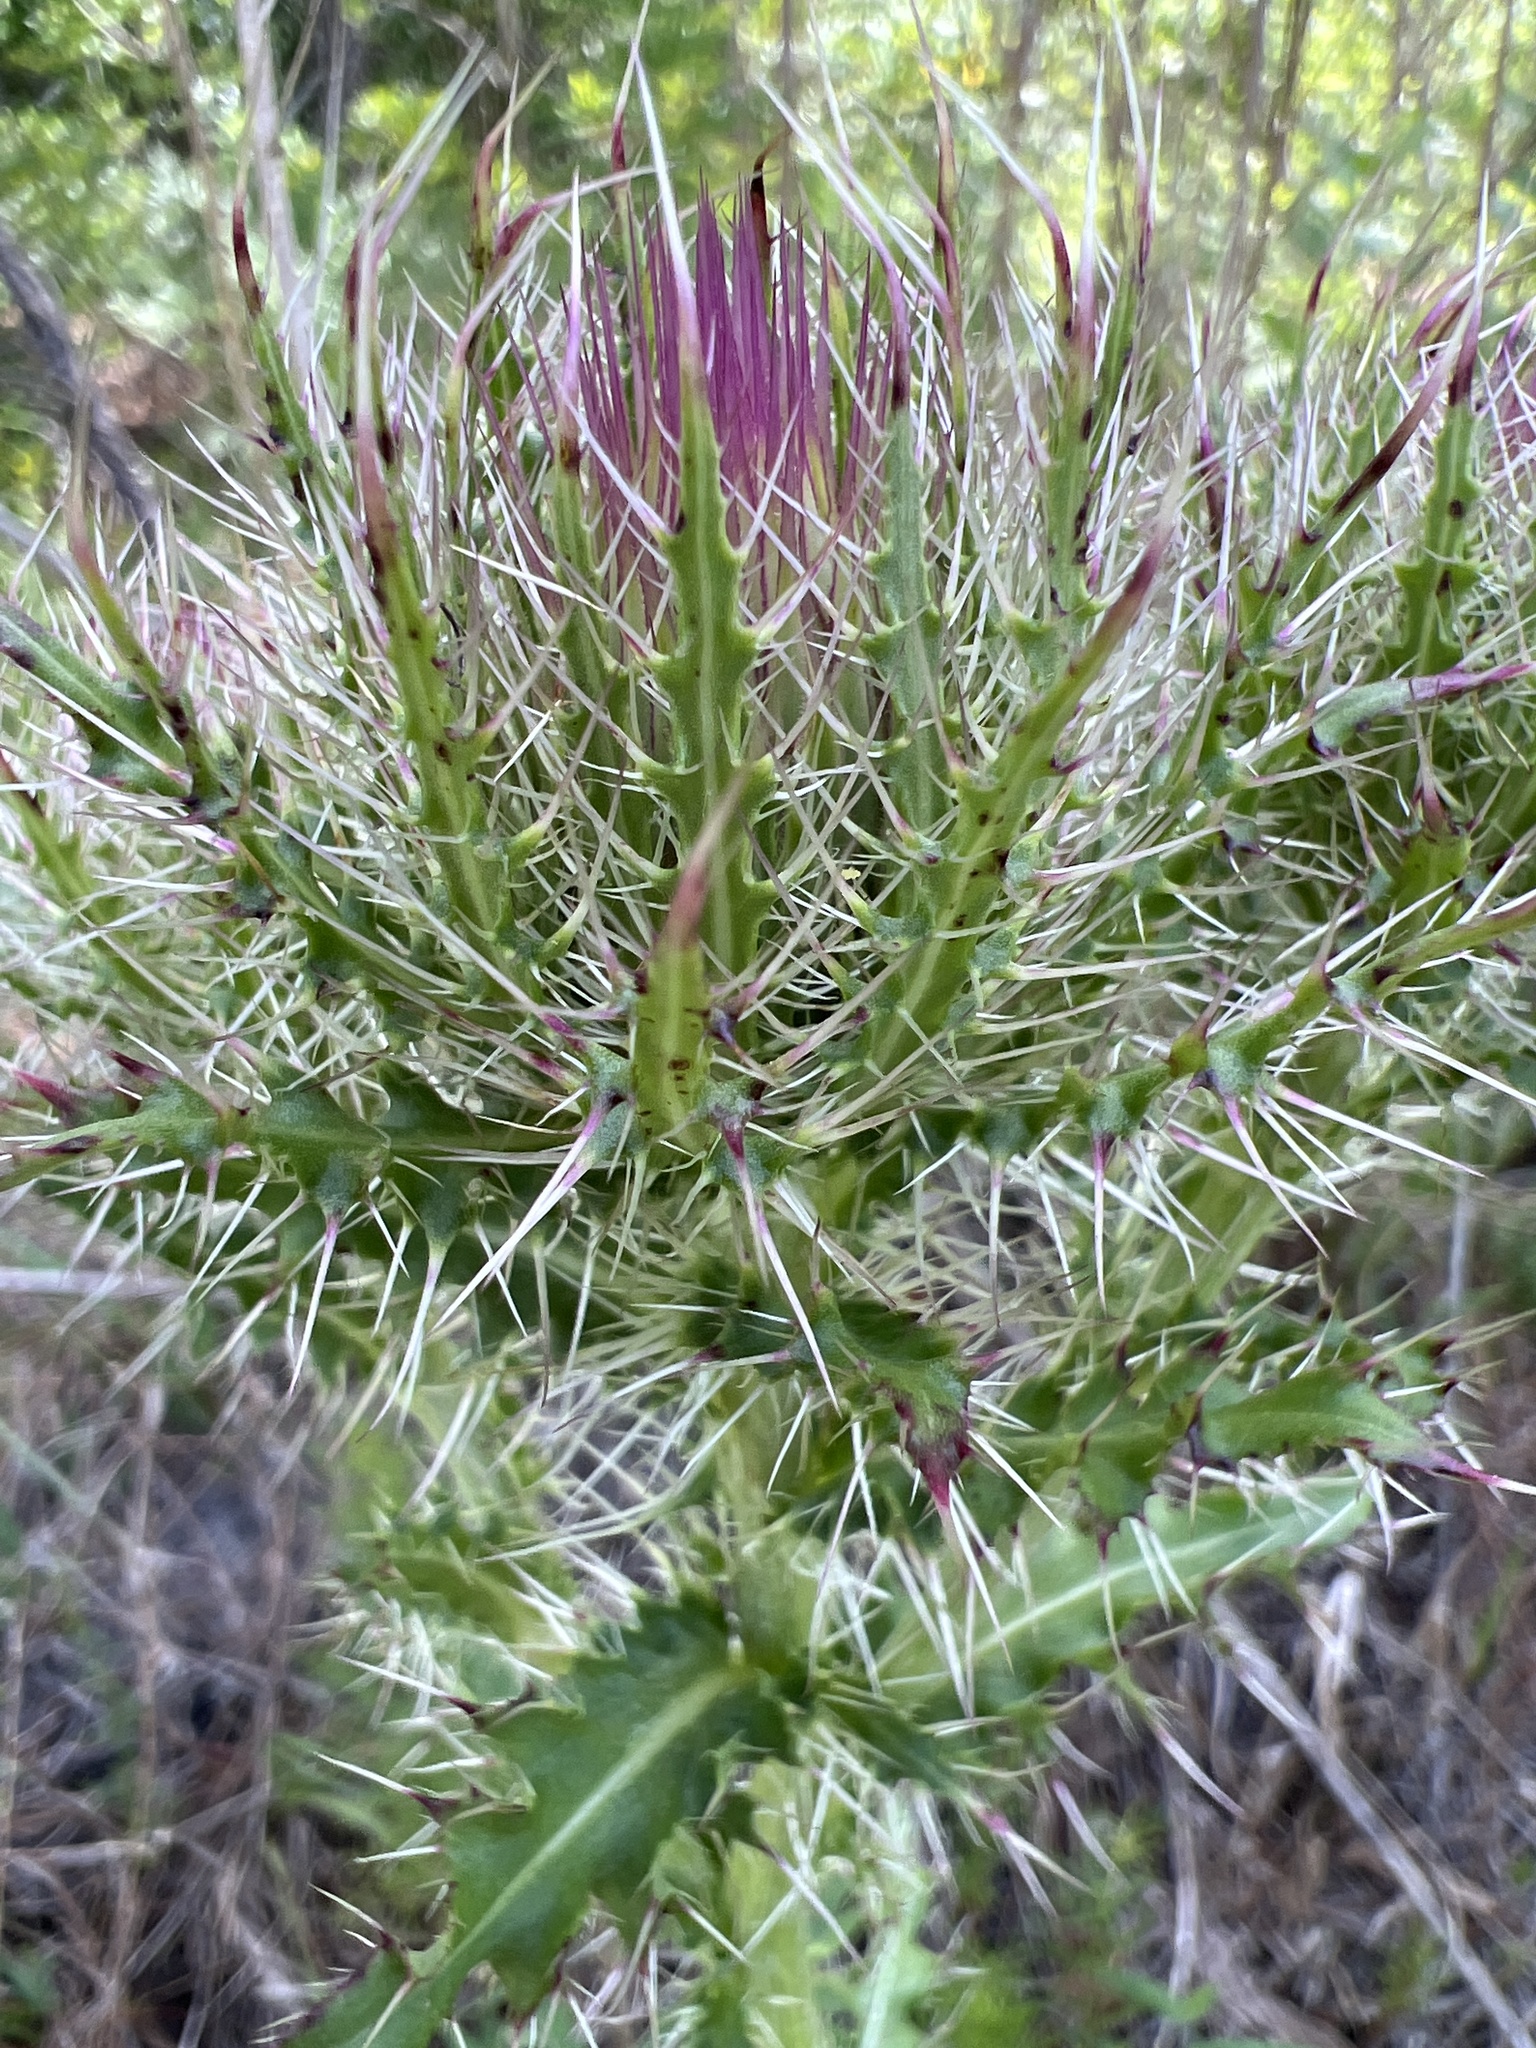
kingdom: Plantae
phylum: Tracheophyta
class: Magnoliopsida
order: Asterales
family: Asteraceae
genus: Cirsium
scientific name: Cirsium horridulum
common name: Bristly thistle
